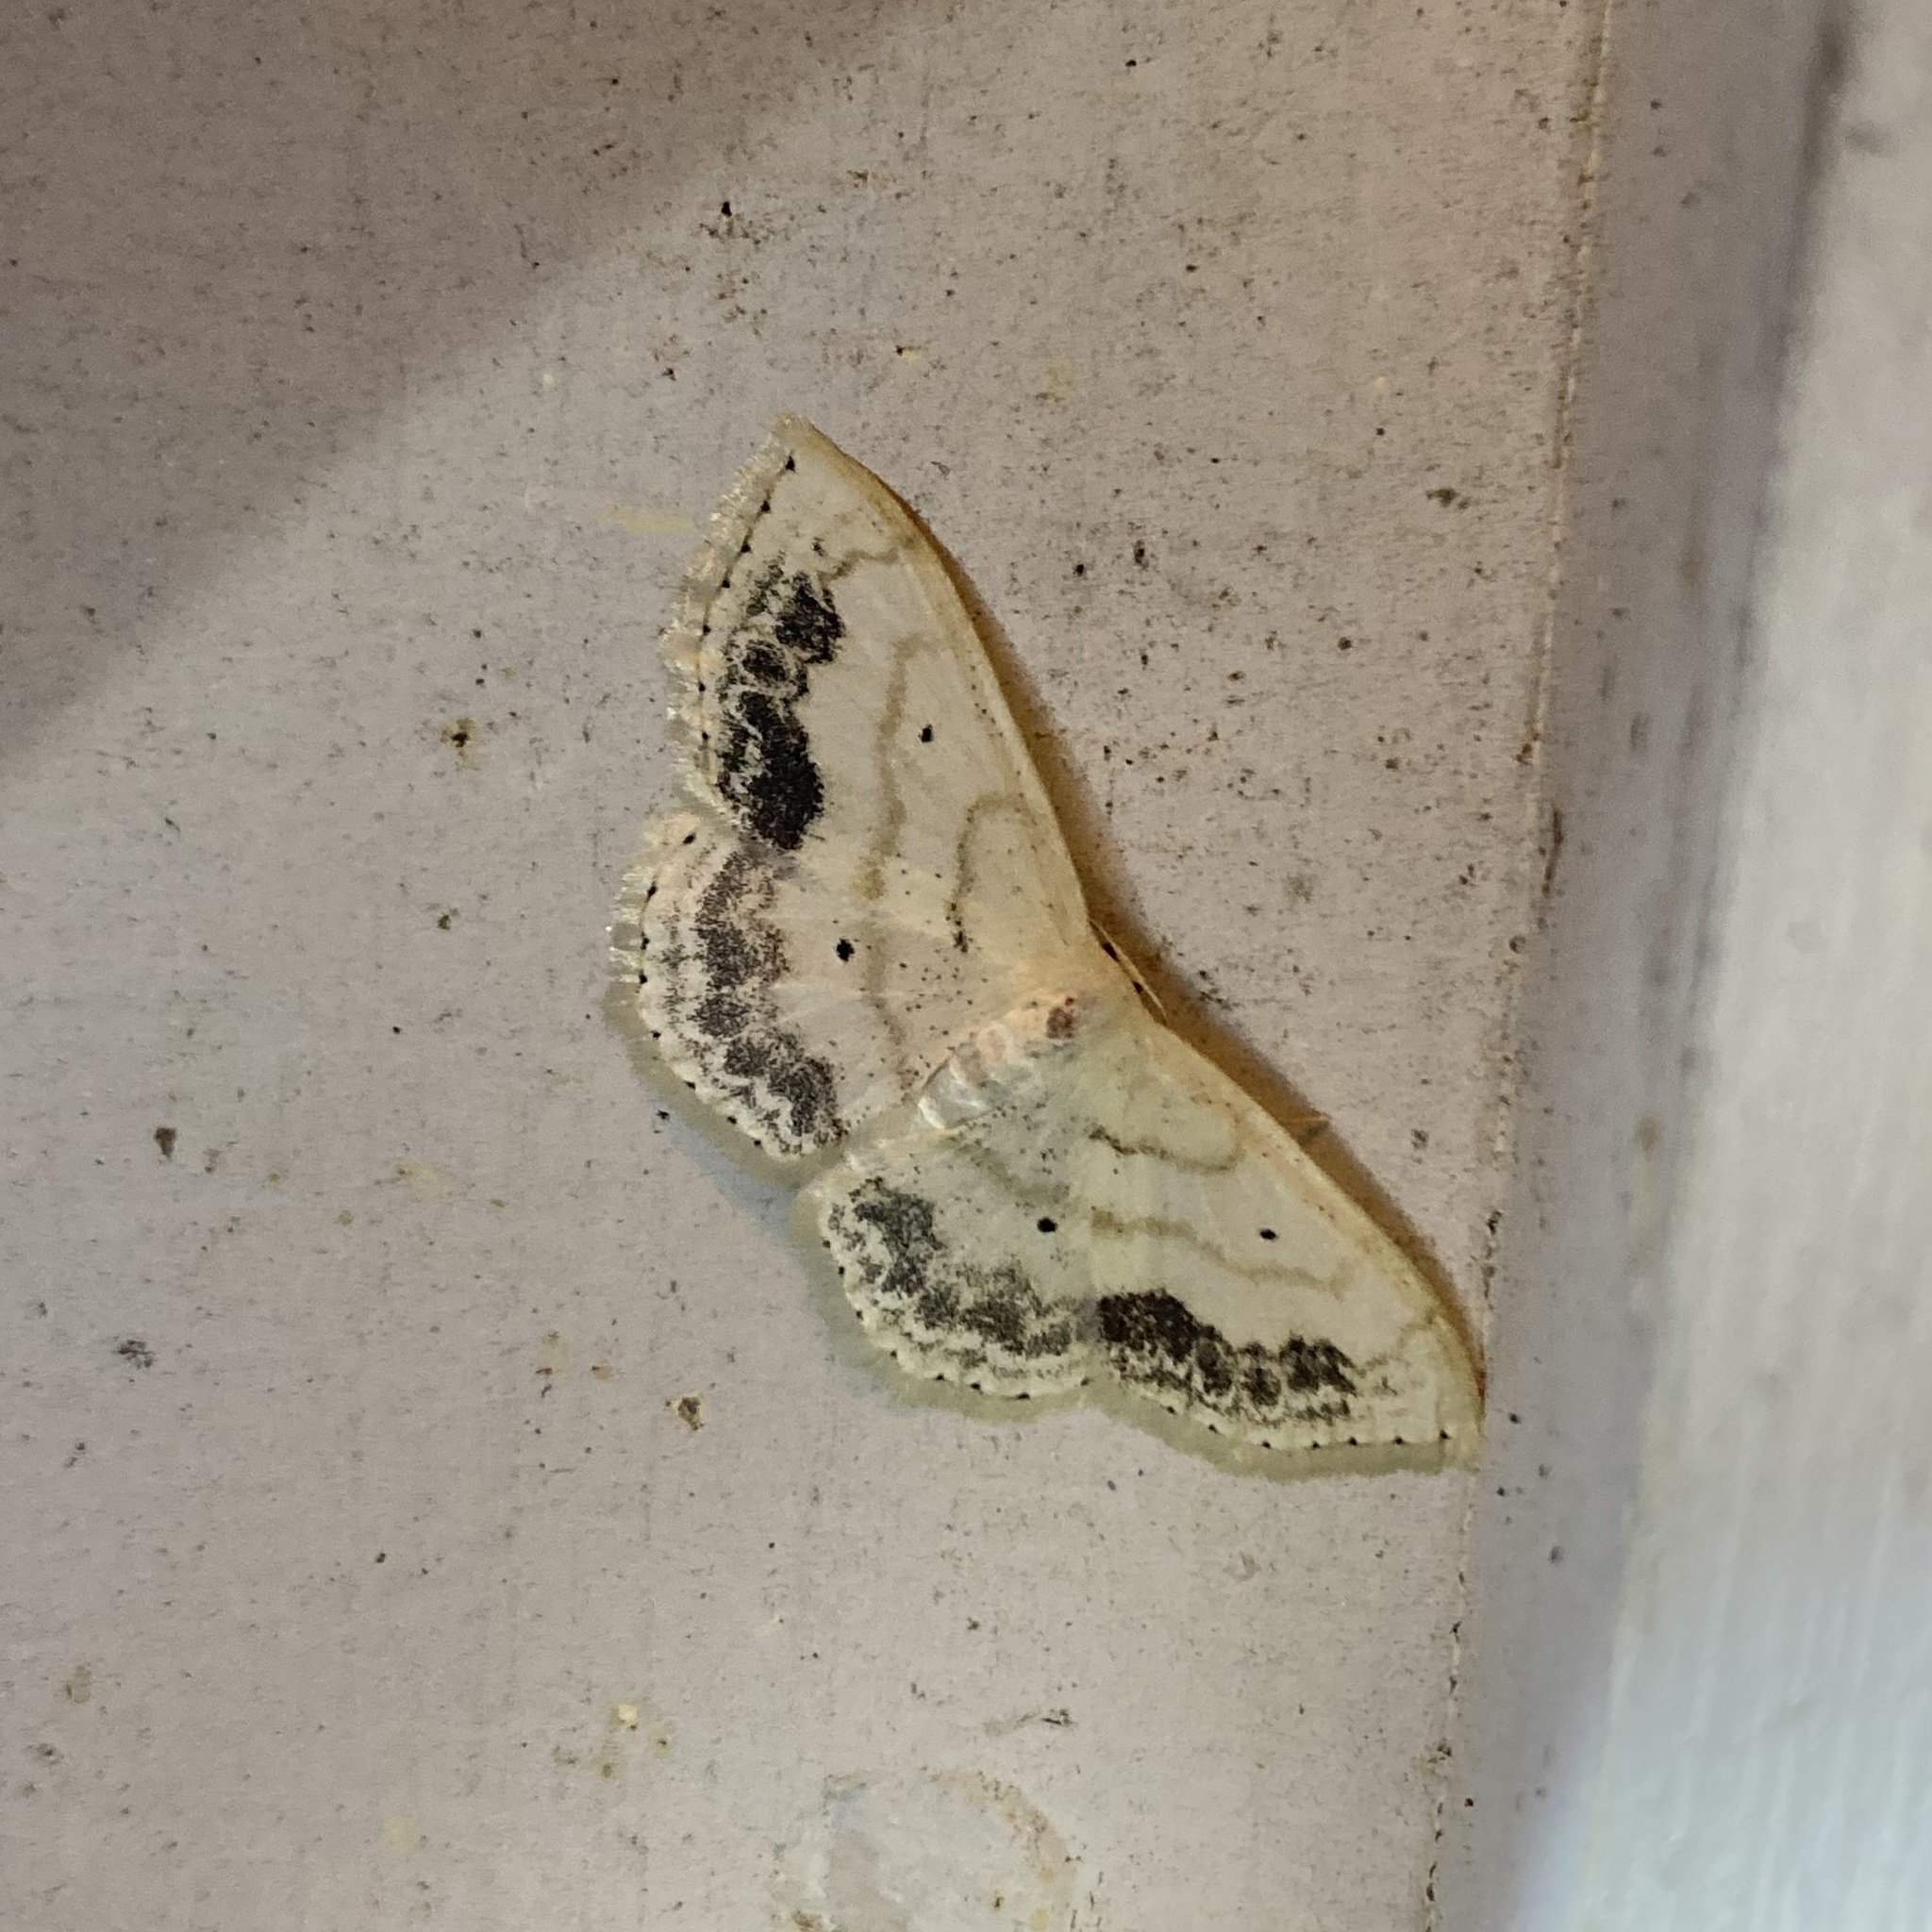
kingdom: Animalia
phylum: Arthropoda
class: Insecta
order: Lepidoptera
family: Geometridae
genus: Scopula
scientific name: Scopula limboundata
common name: Large lace border
